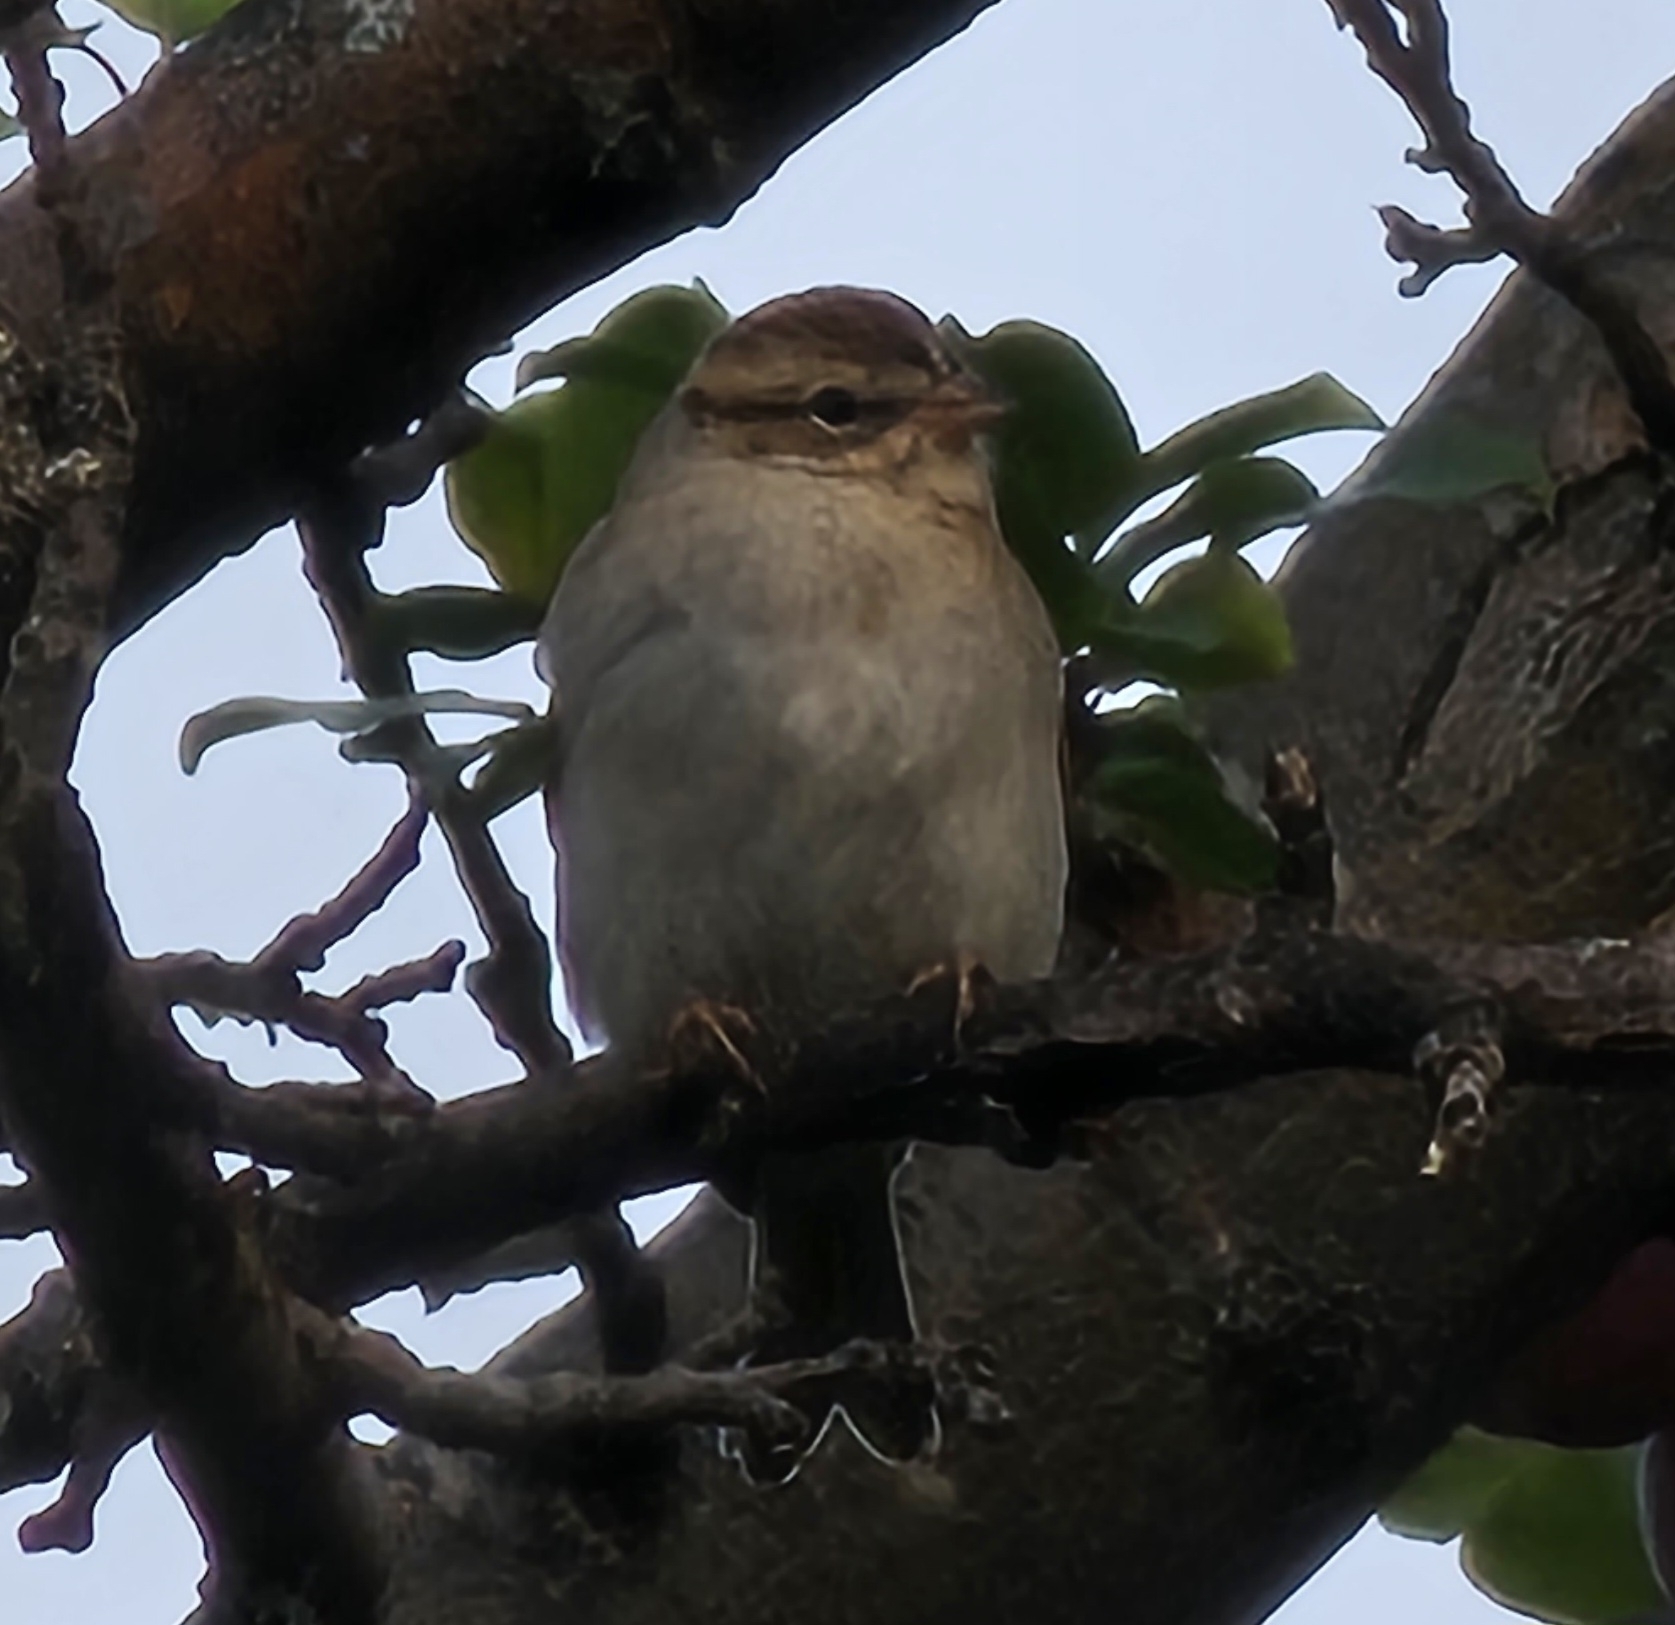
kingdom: Animalia
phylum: Chordata
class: Aves
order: Passeriformes
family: Passerellidae
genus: Spizella
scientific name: Spizella passerina
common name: Chipping sparrow
